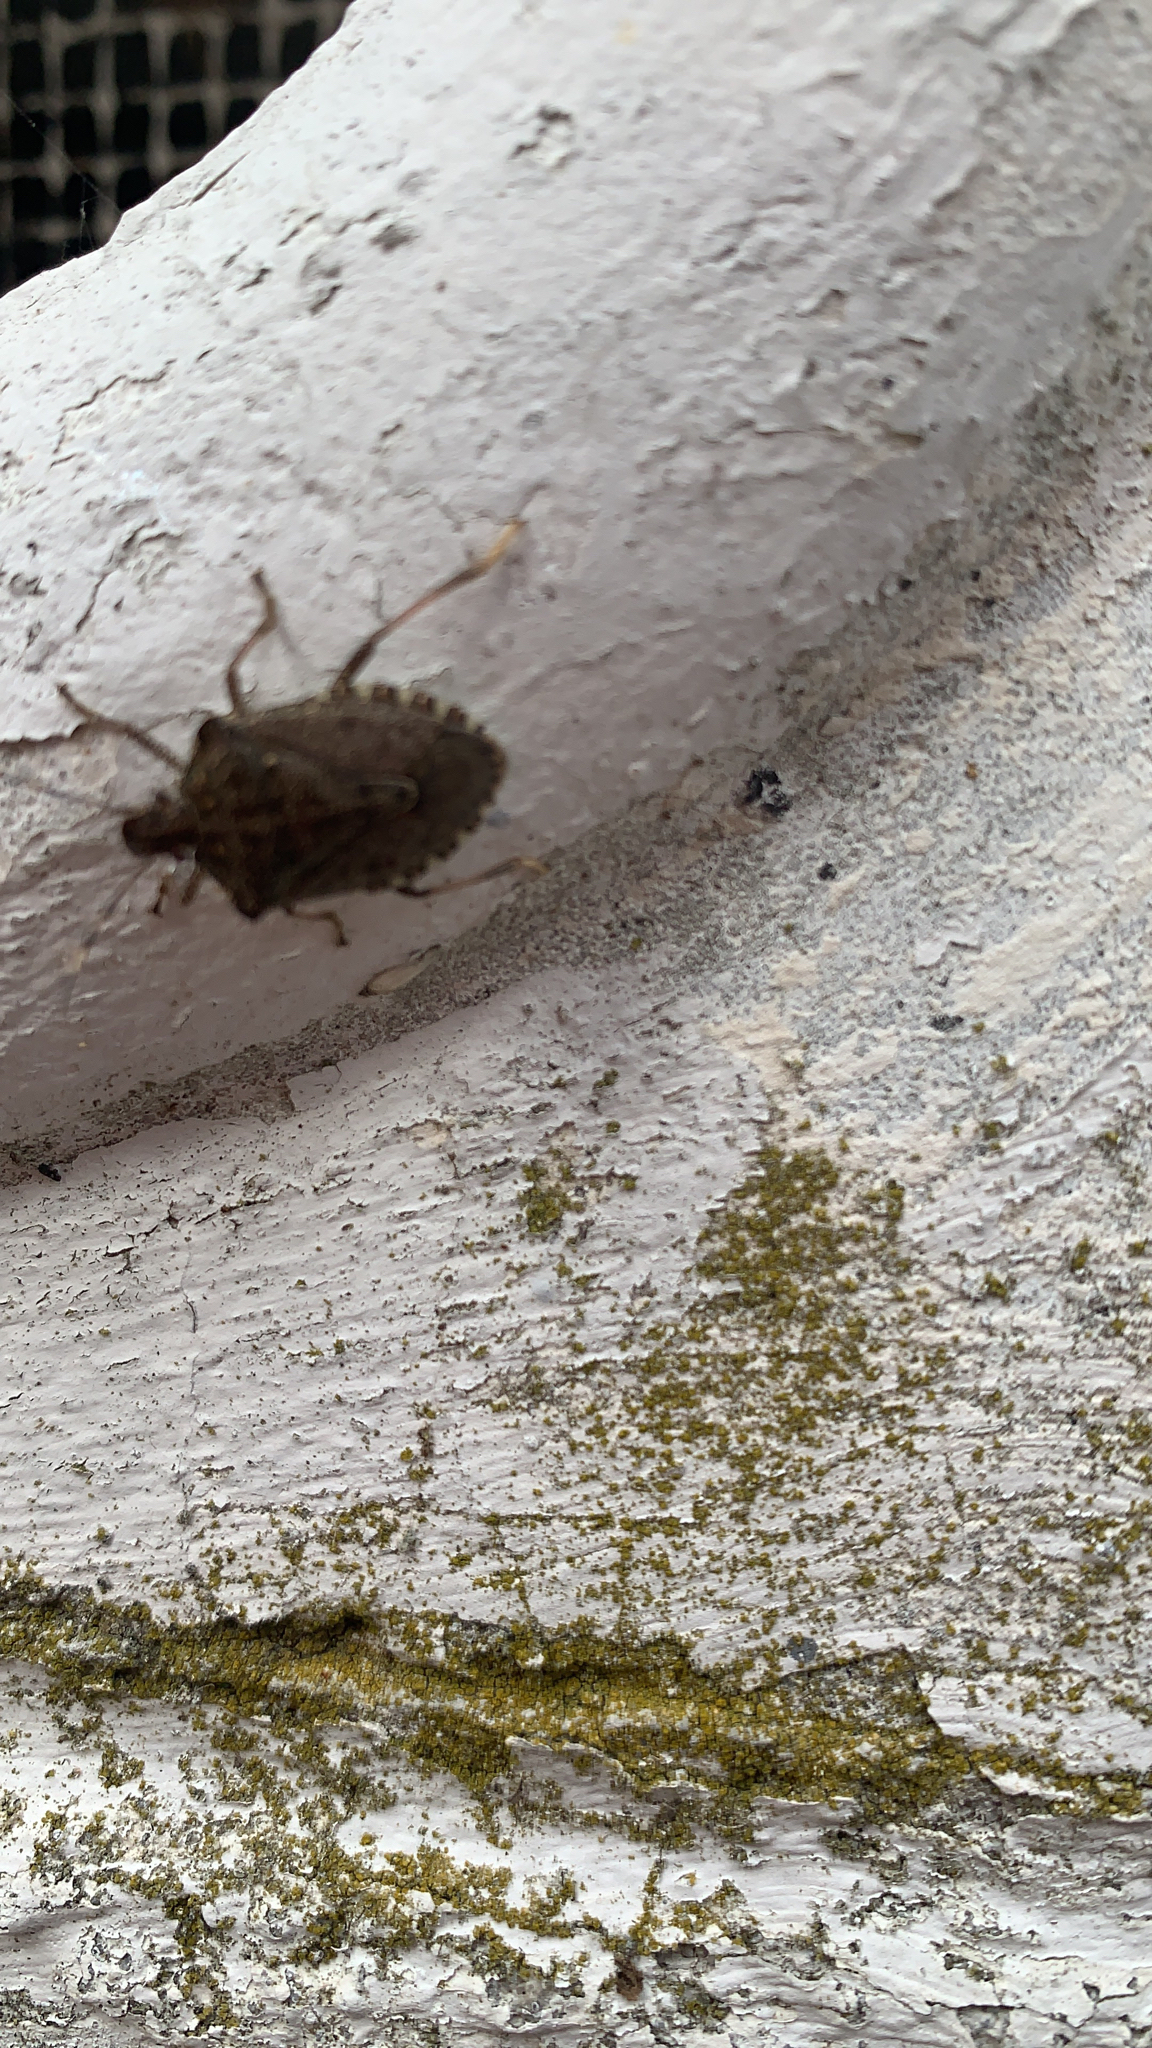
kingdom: Animalia
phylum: Arthropoda
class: Insecta
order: Hemiptera
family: Pentatomidae
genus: Halyomorpha
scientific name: Halyomorpha halys
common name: Brown marmorated stink bug
